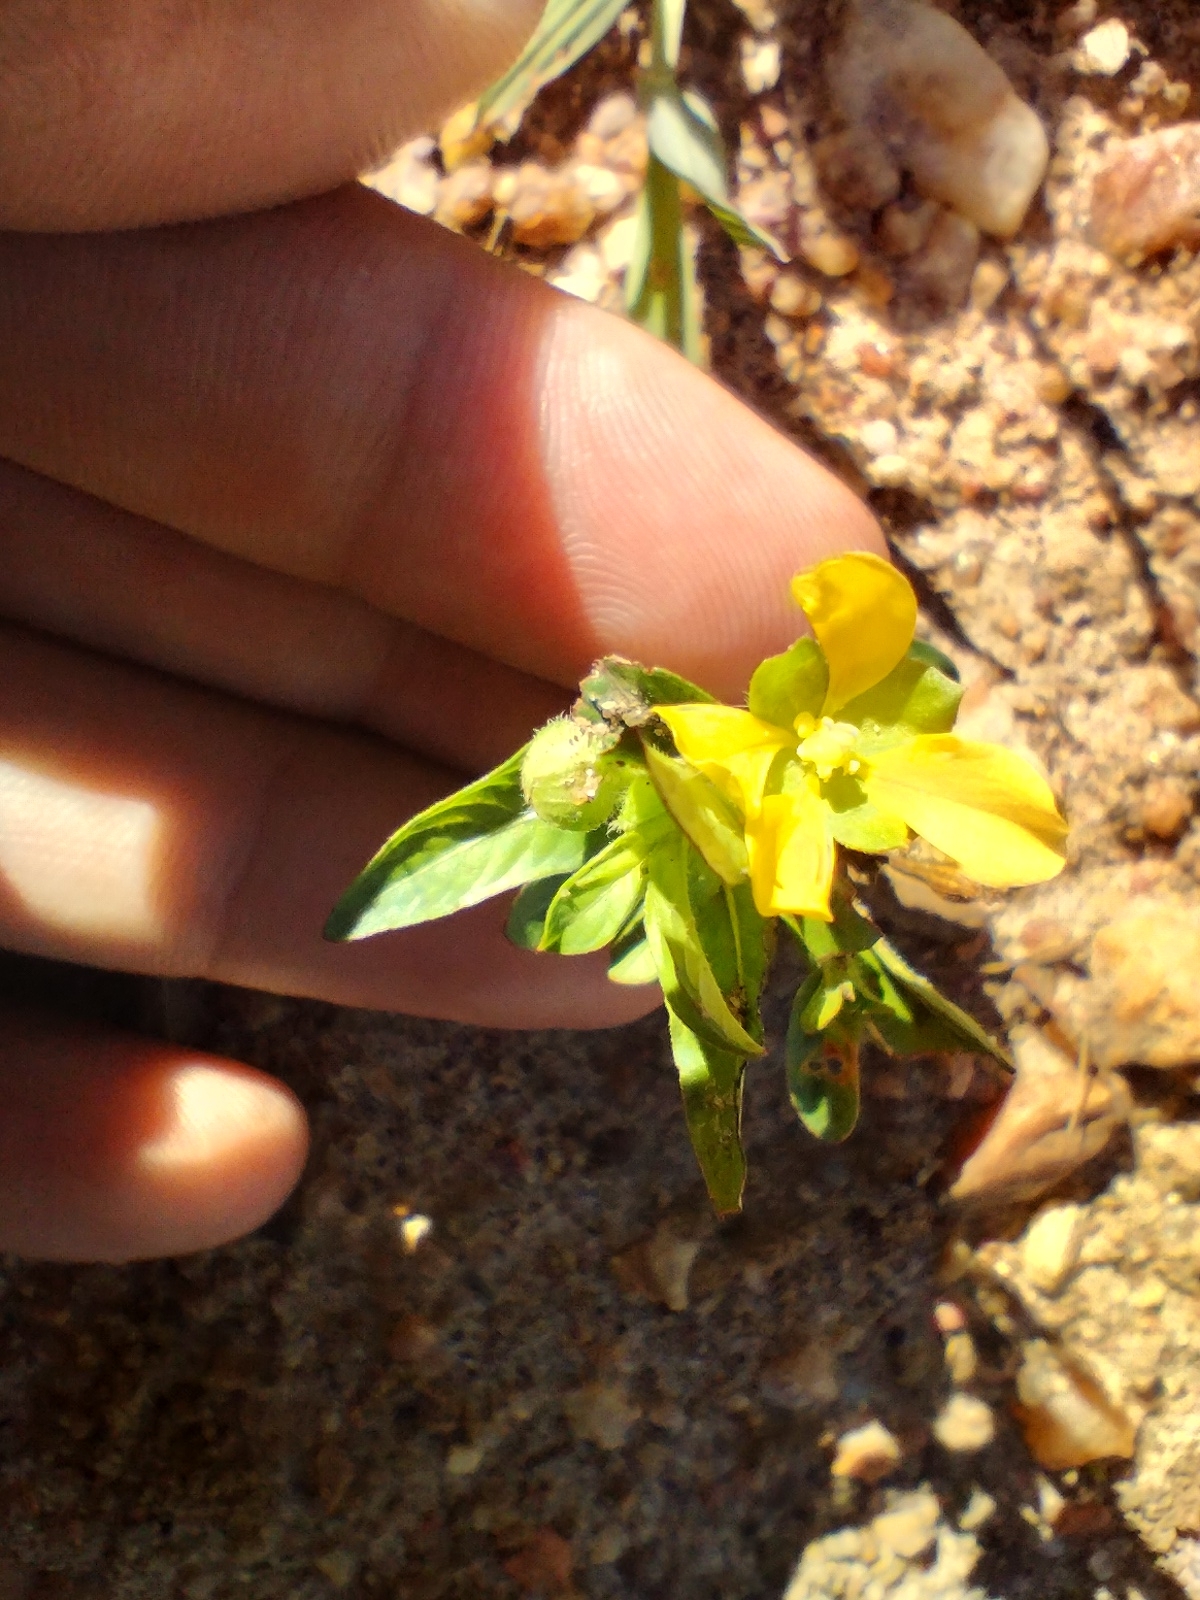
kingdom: Plantae
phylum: Tracheophyta
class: Magnoliopsida
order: Myrtales
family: Onagraceae
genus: Ludwigia
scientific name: Ludwigia octovalvis
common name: Water-primrose
